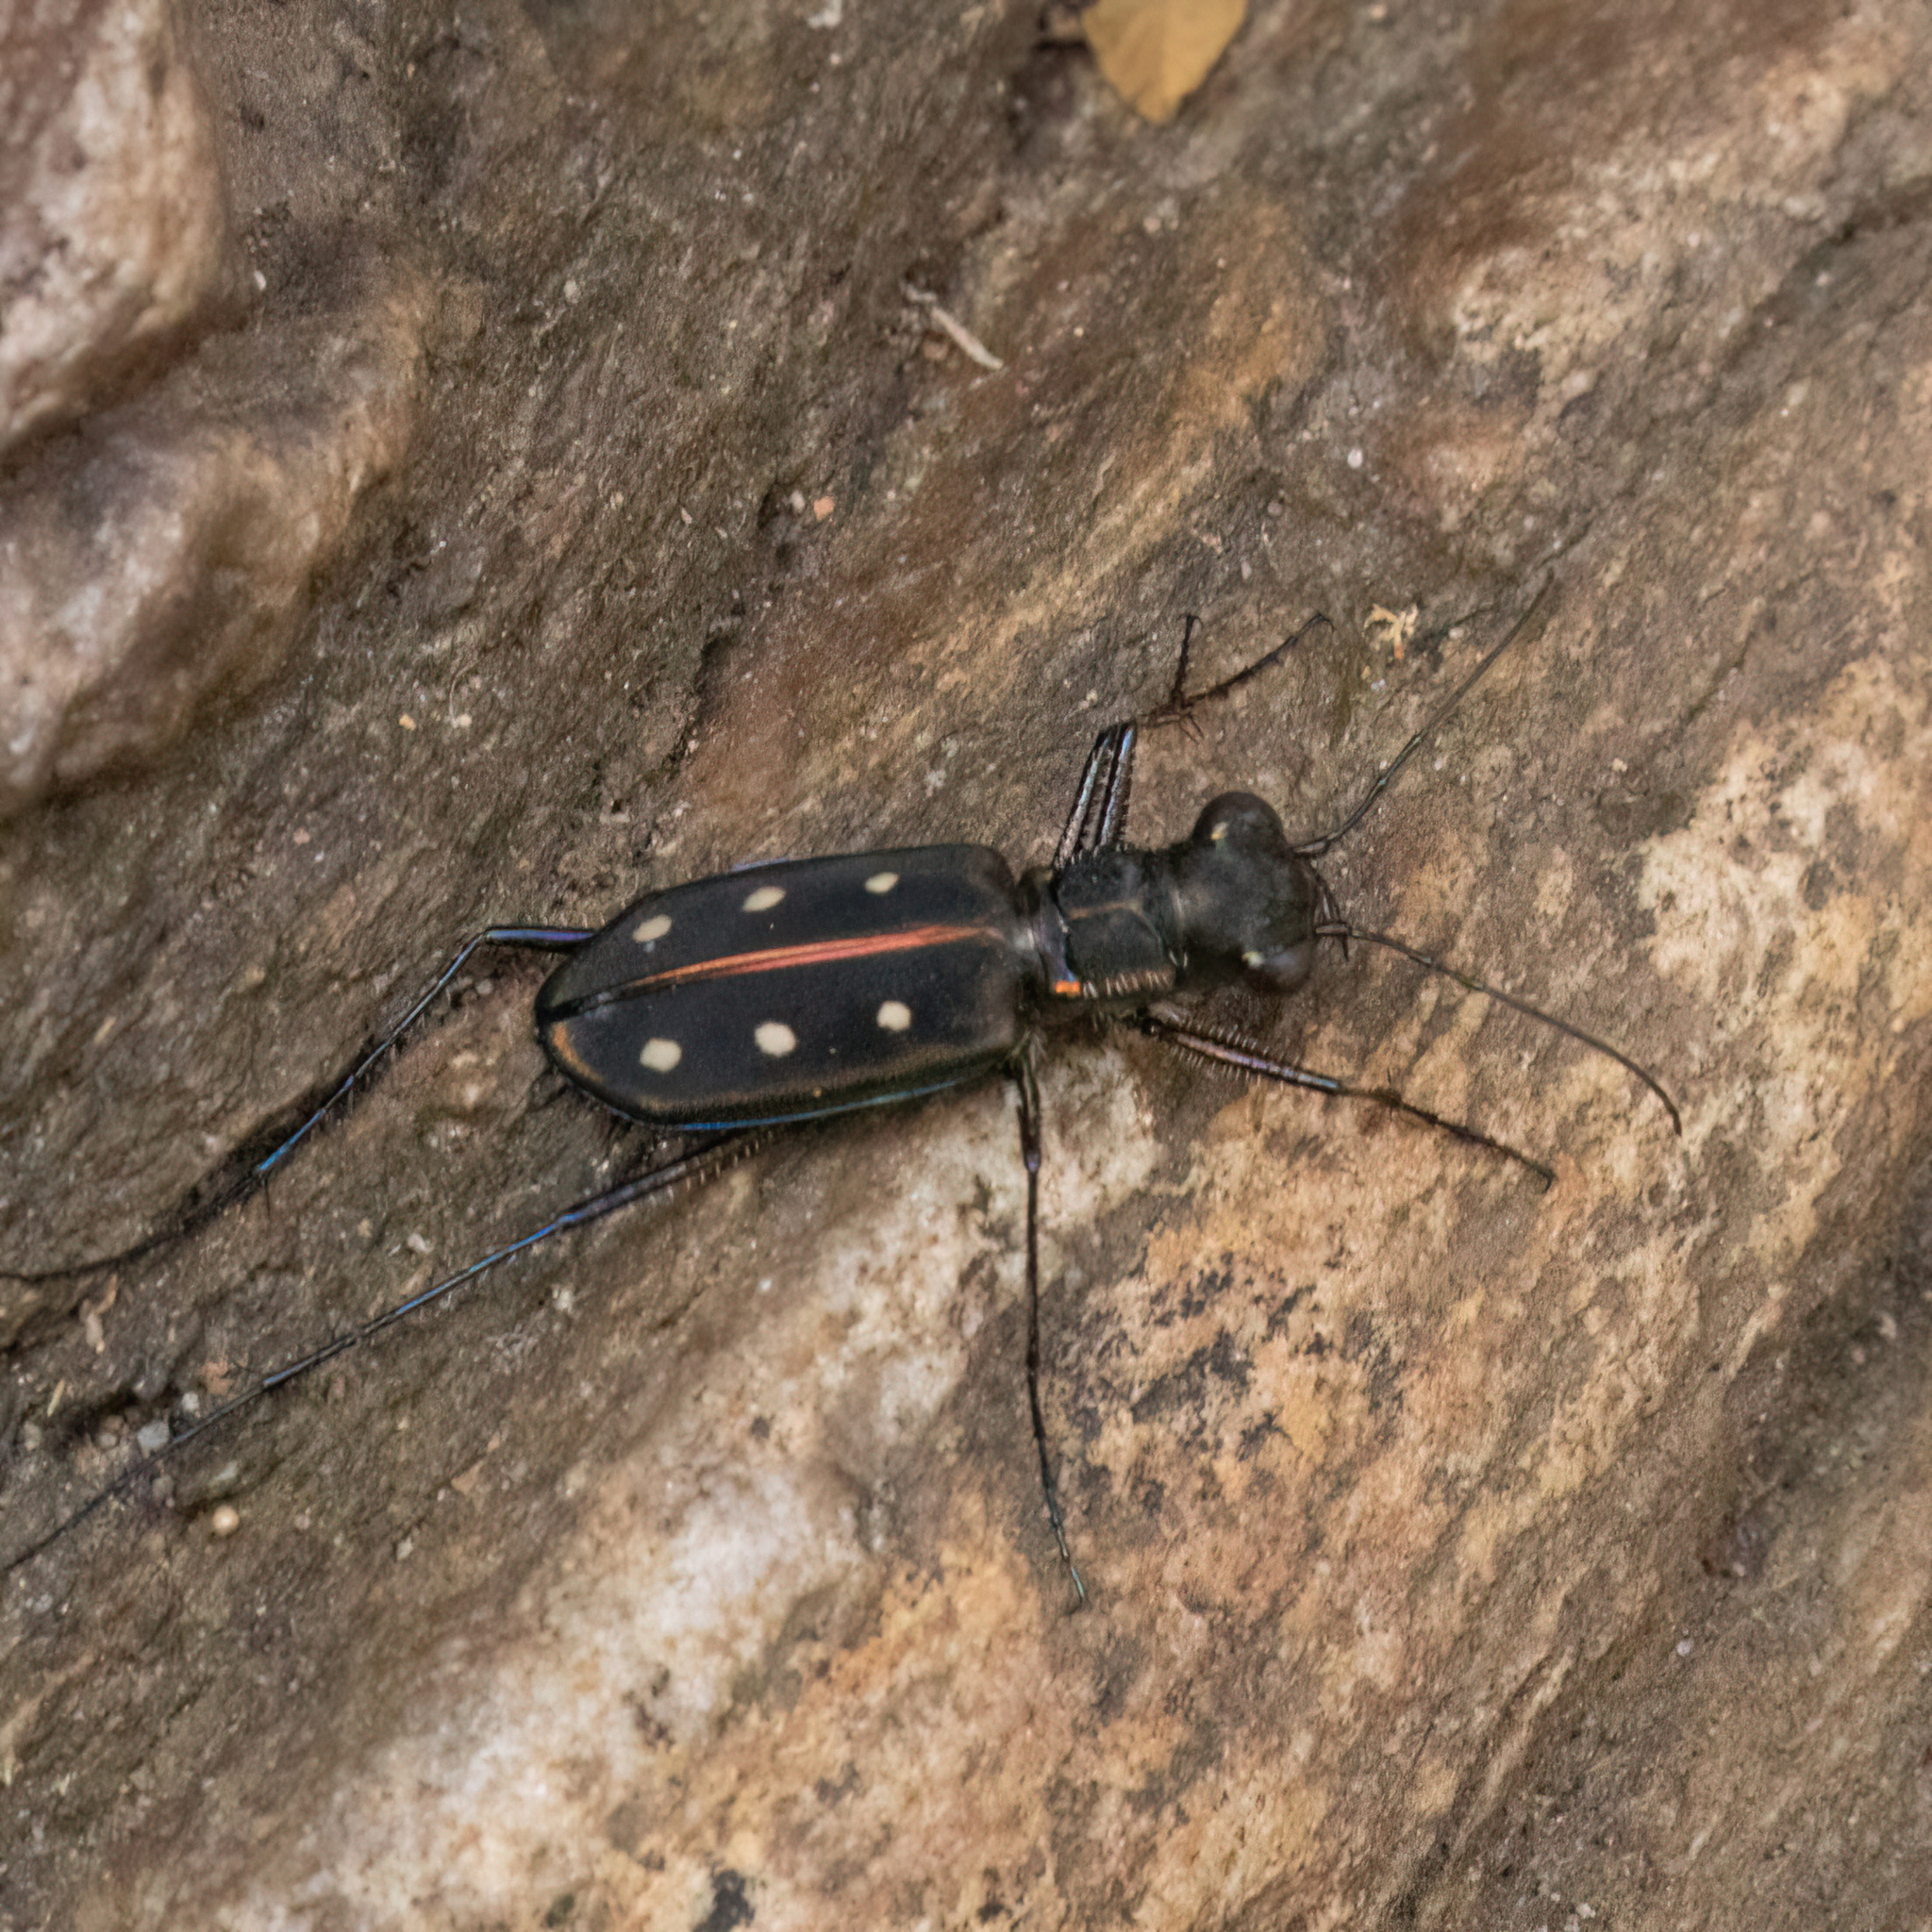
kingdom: Animalia
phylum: Arthropoda
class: Insecta
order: Coleoptera
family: Carabidae
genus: Cicindela
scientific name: Cicindela sexpunctata
